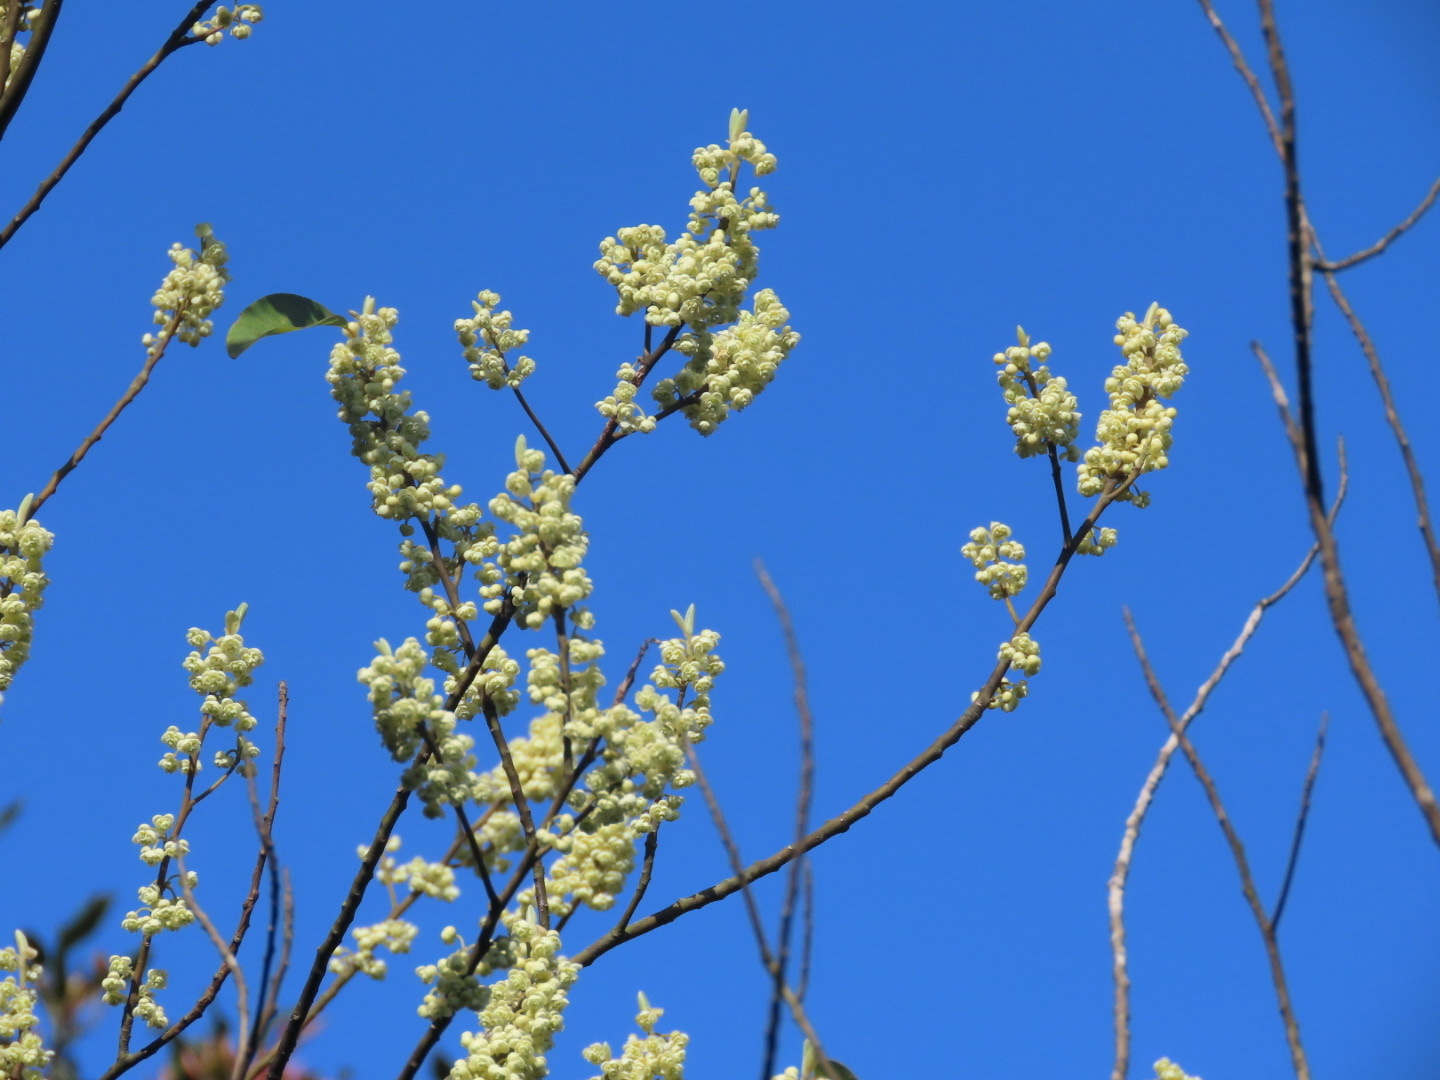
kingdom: Plantae
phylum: Tracheophyta
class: Magnoliopsida
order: Laurales
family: Lauraceae
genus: Litsea
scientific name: Litsea cubeba
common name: Mountain-pepper
